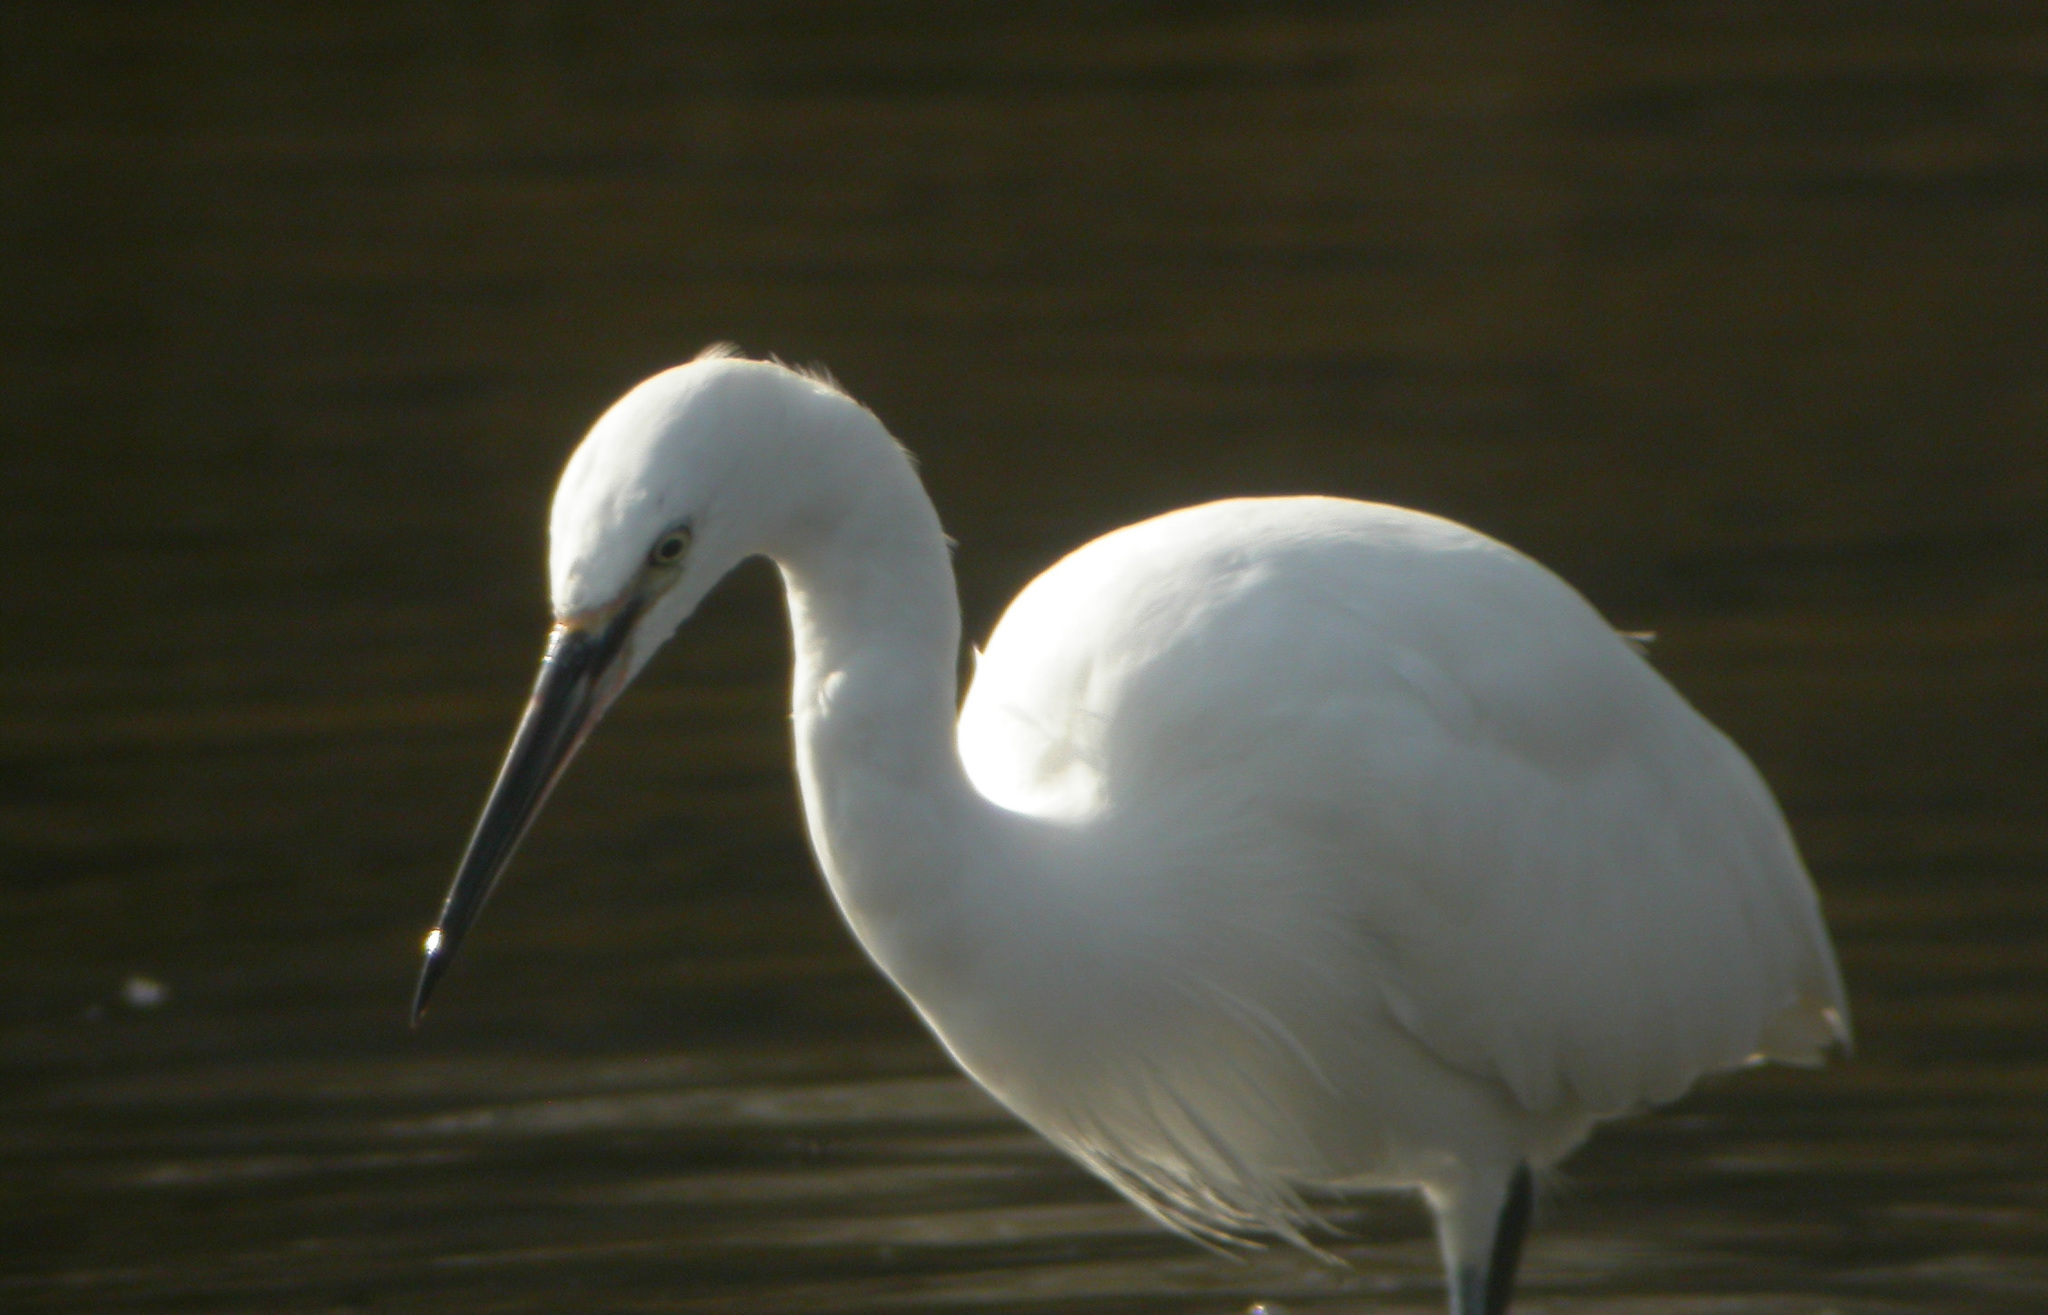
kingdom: Animalia
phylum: Chordata
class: Aves
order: Pelecaniformes
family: Ardeidae
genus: Egretta
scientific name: Egretta garzetta
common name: Little egret
